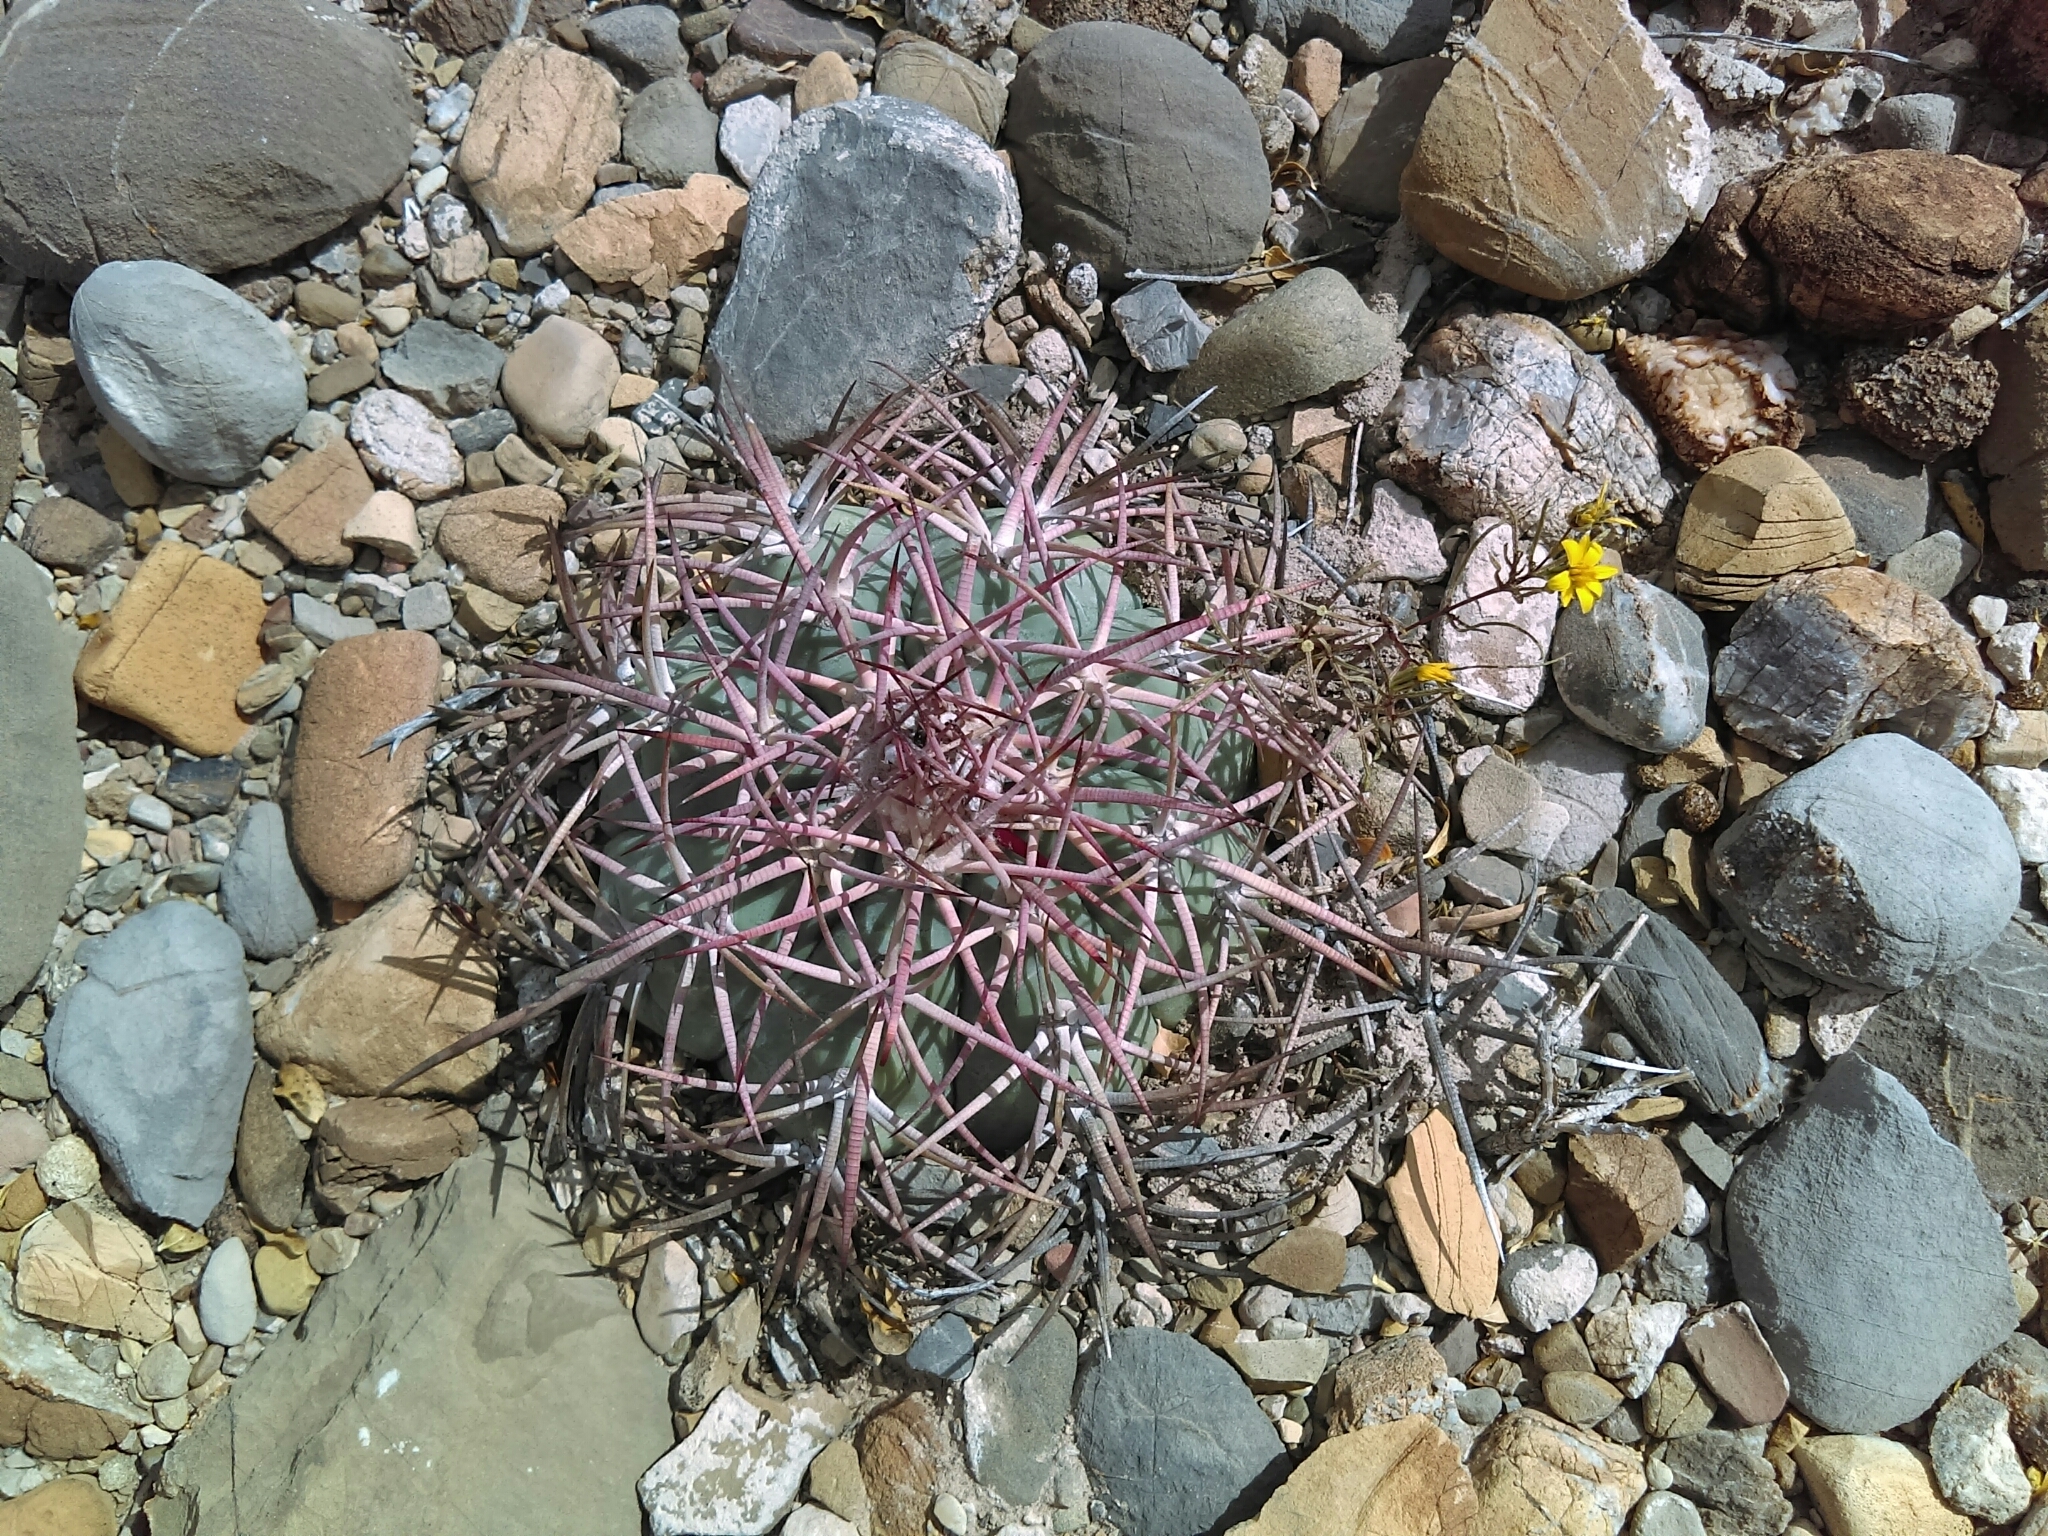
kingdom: Plantae
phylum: Tracheophyta
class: Magnoliopsida
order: Caryophyllales
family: Cactaceae
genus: Echinocactus
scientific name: Echinocactus horizonthalonius
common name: Devilshead
